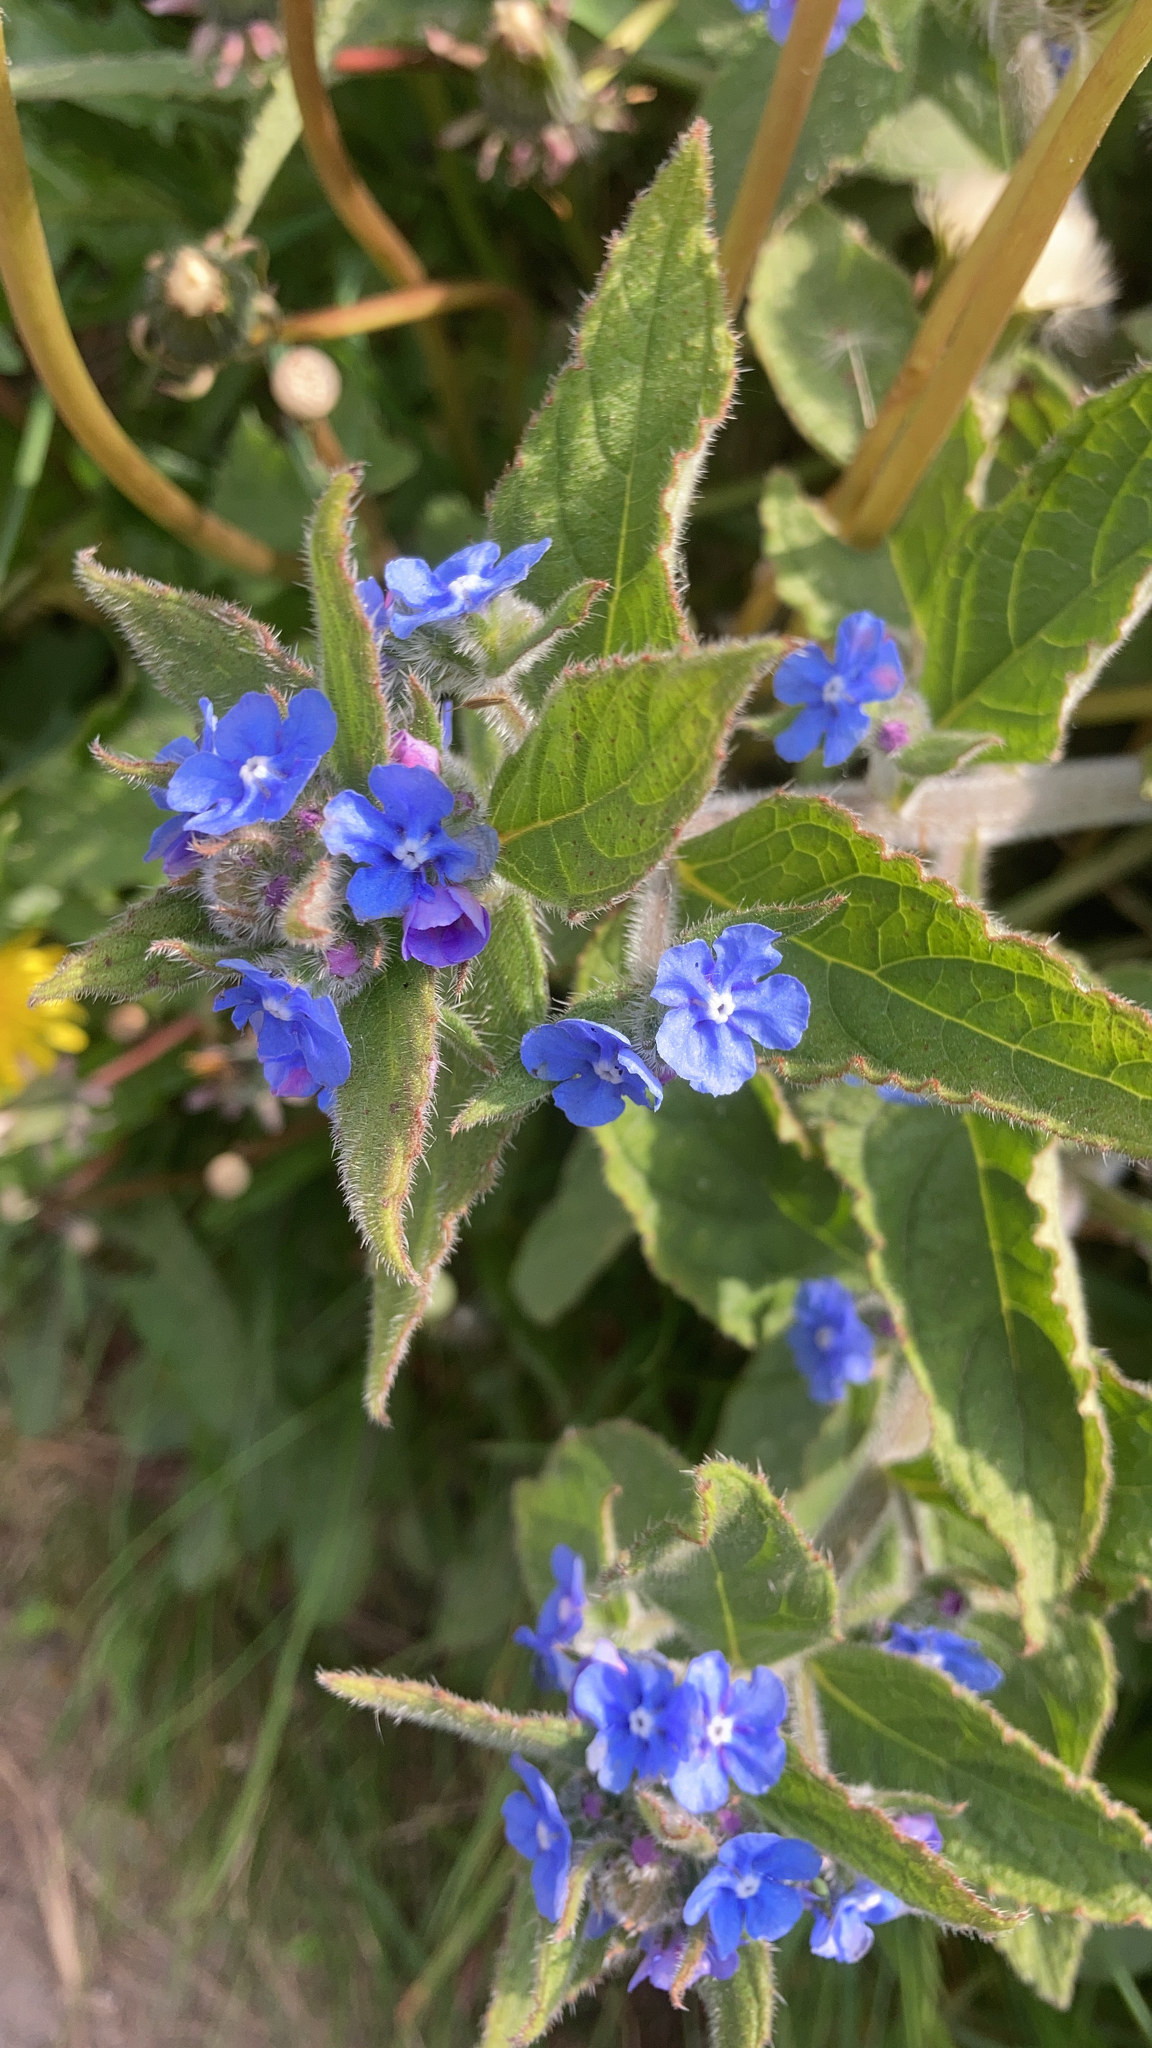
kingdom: Plantae
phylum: Tracheophyta
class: Magnoliopsida
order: Boraginales
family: Boraginaceae
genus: Pentaglottis
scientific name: Pentaglottis sempervirens
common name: Green alkanet
